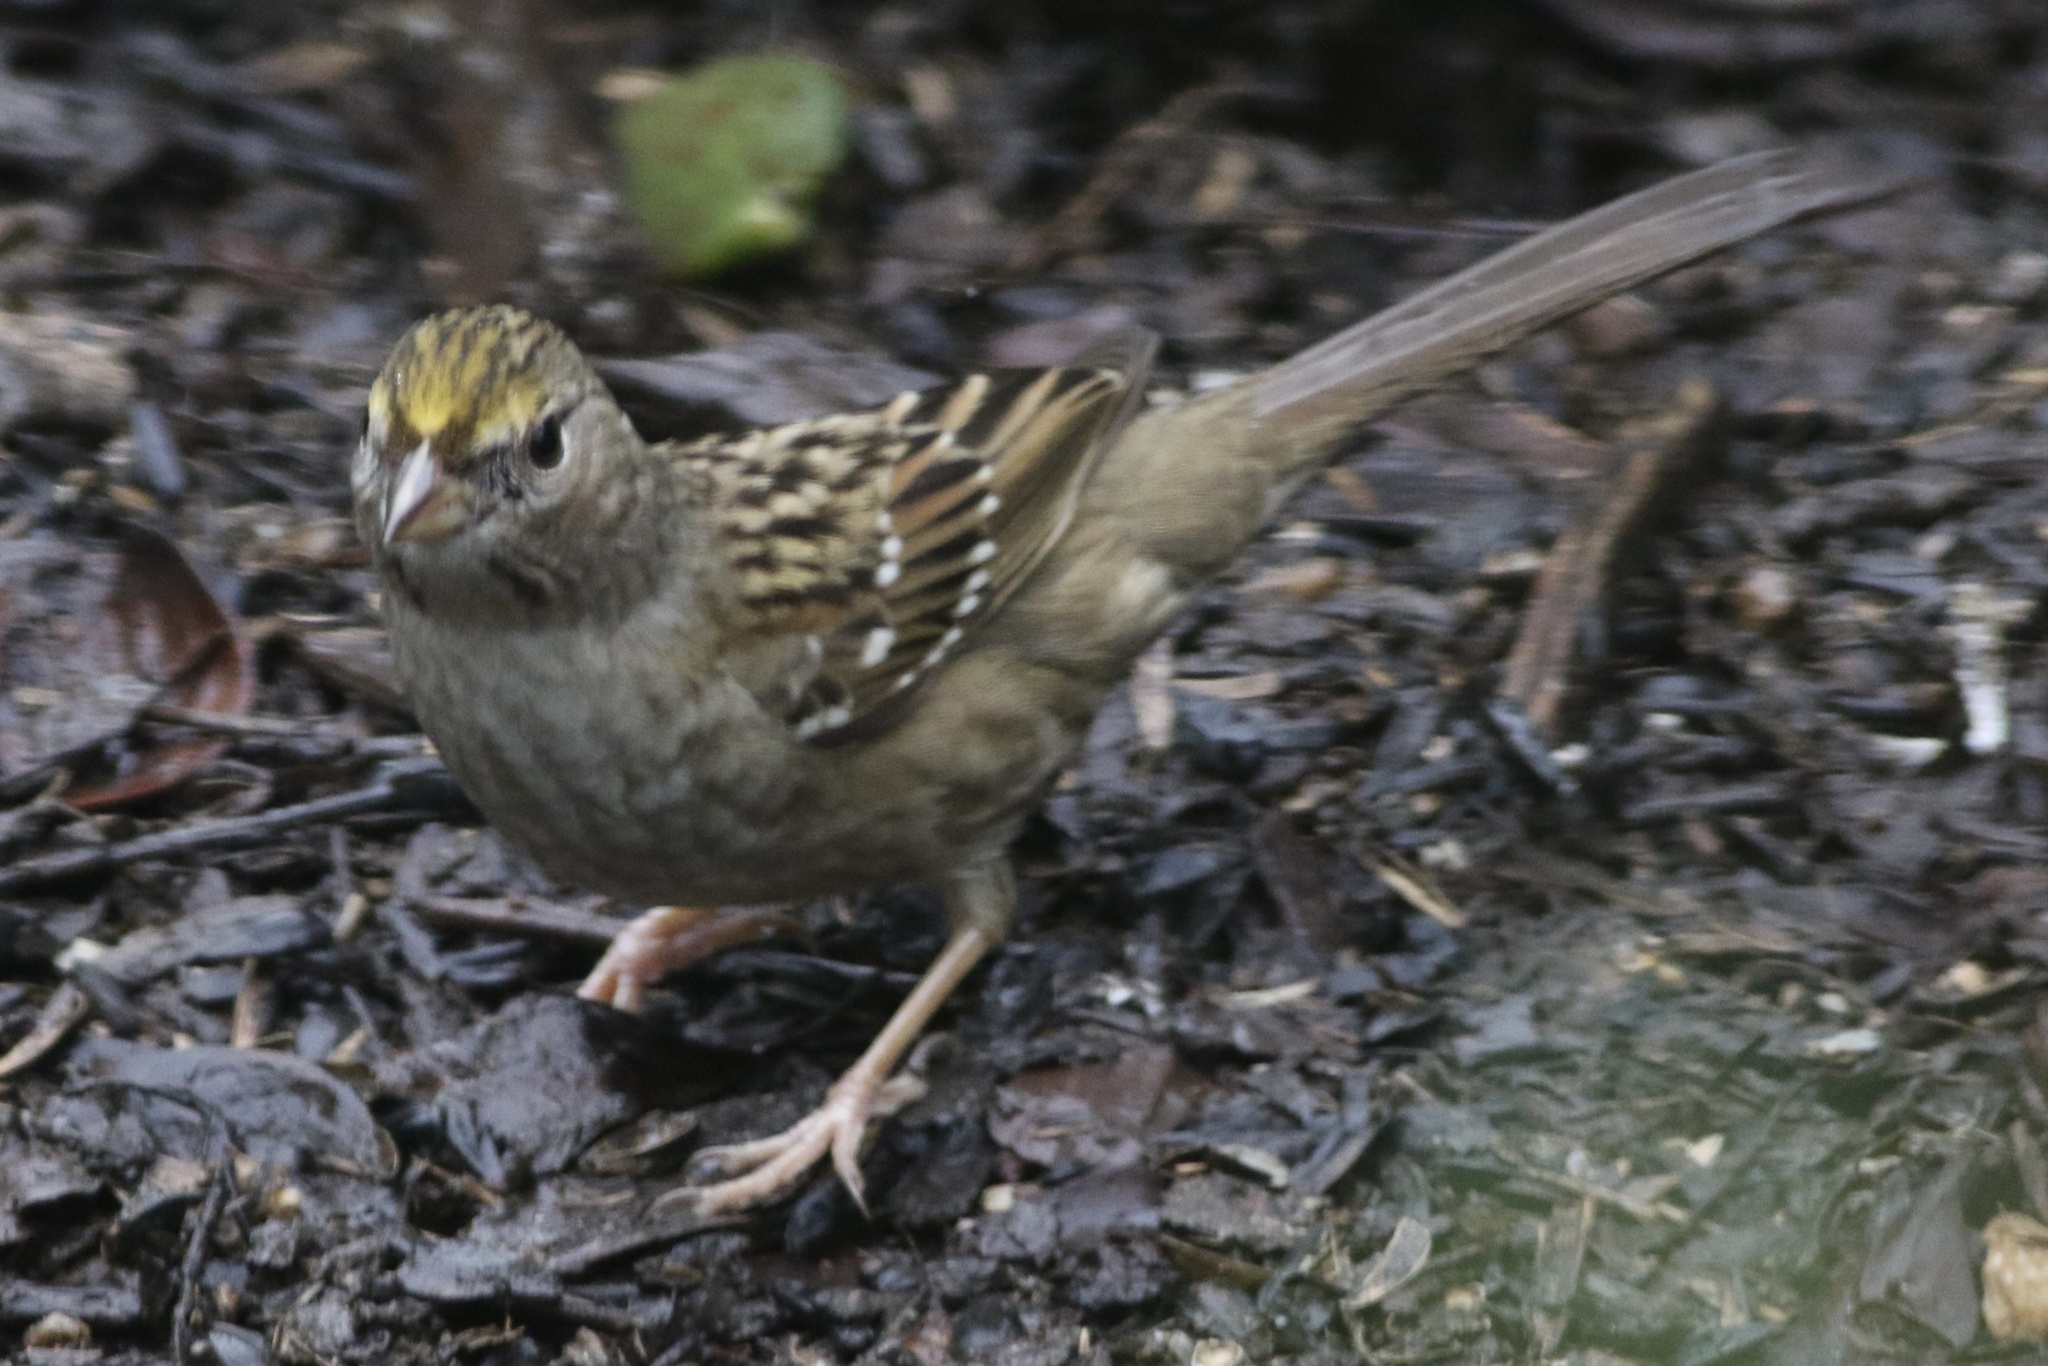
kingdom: Animalia
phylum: Chordata
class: Aves
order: Passeriformes
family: Passerellidae
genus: Zonotrichia
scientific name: Zonotrichia atricapilla
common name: Golden-crowned sparrow
